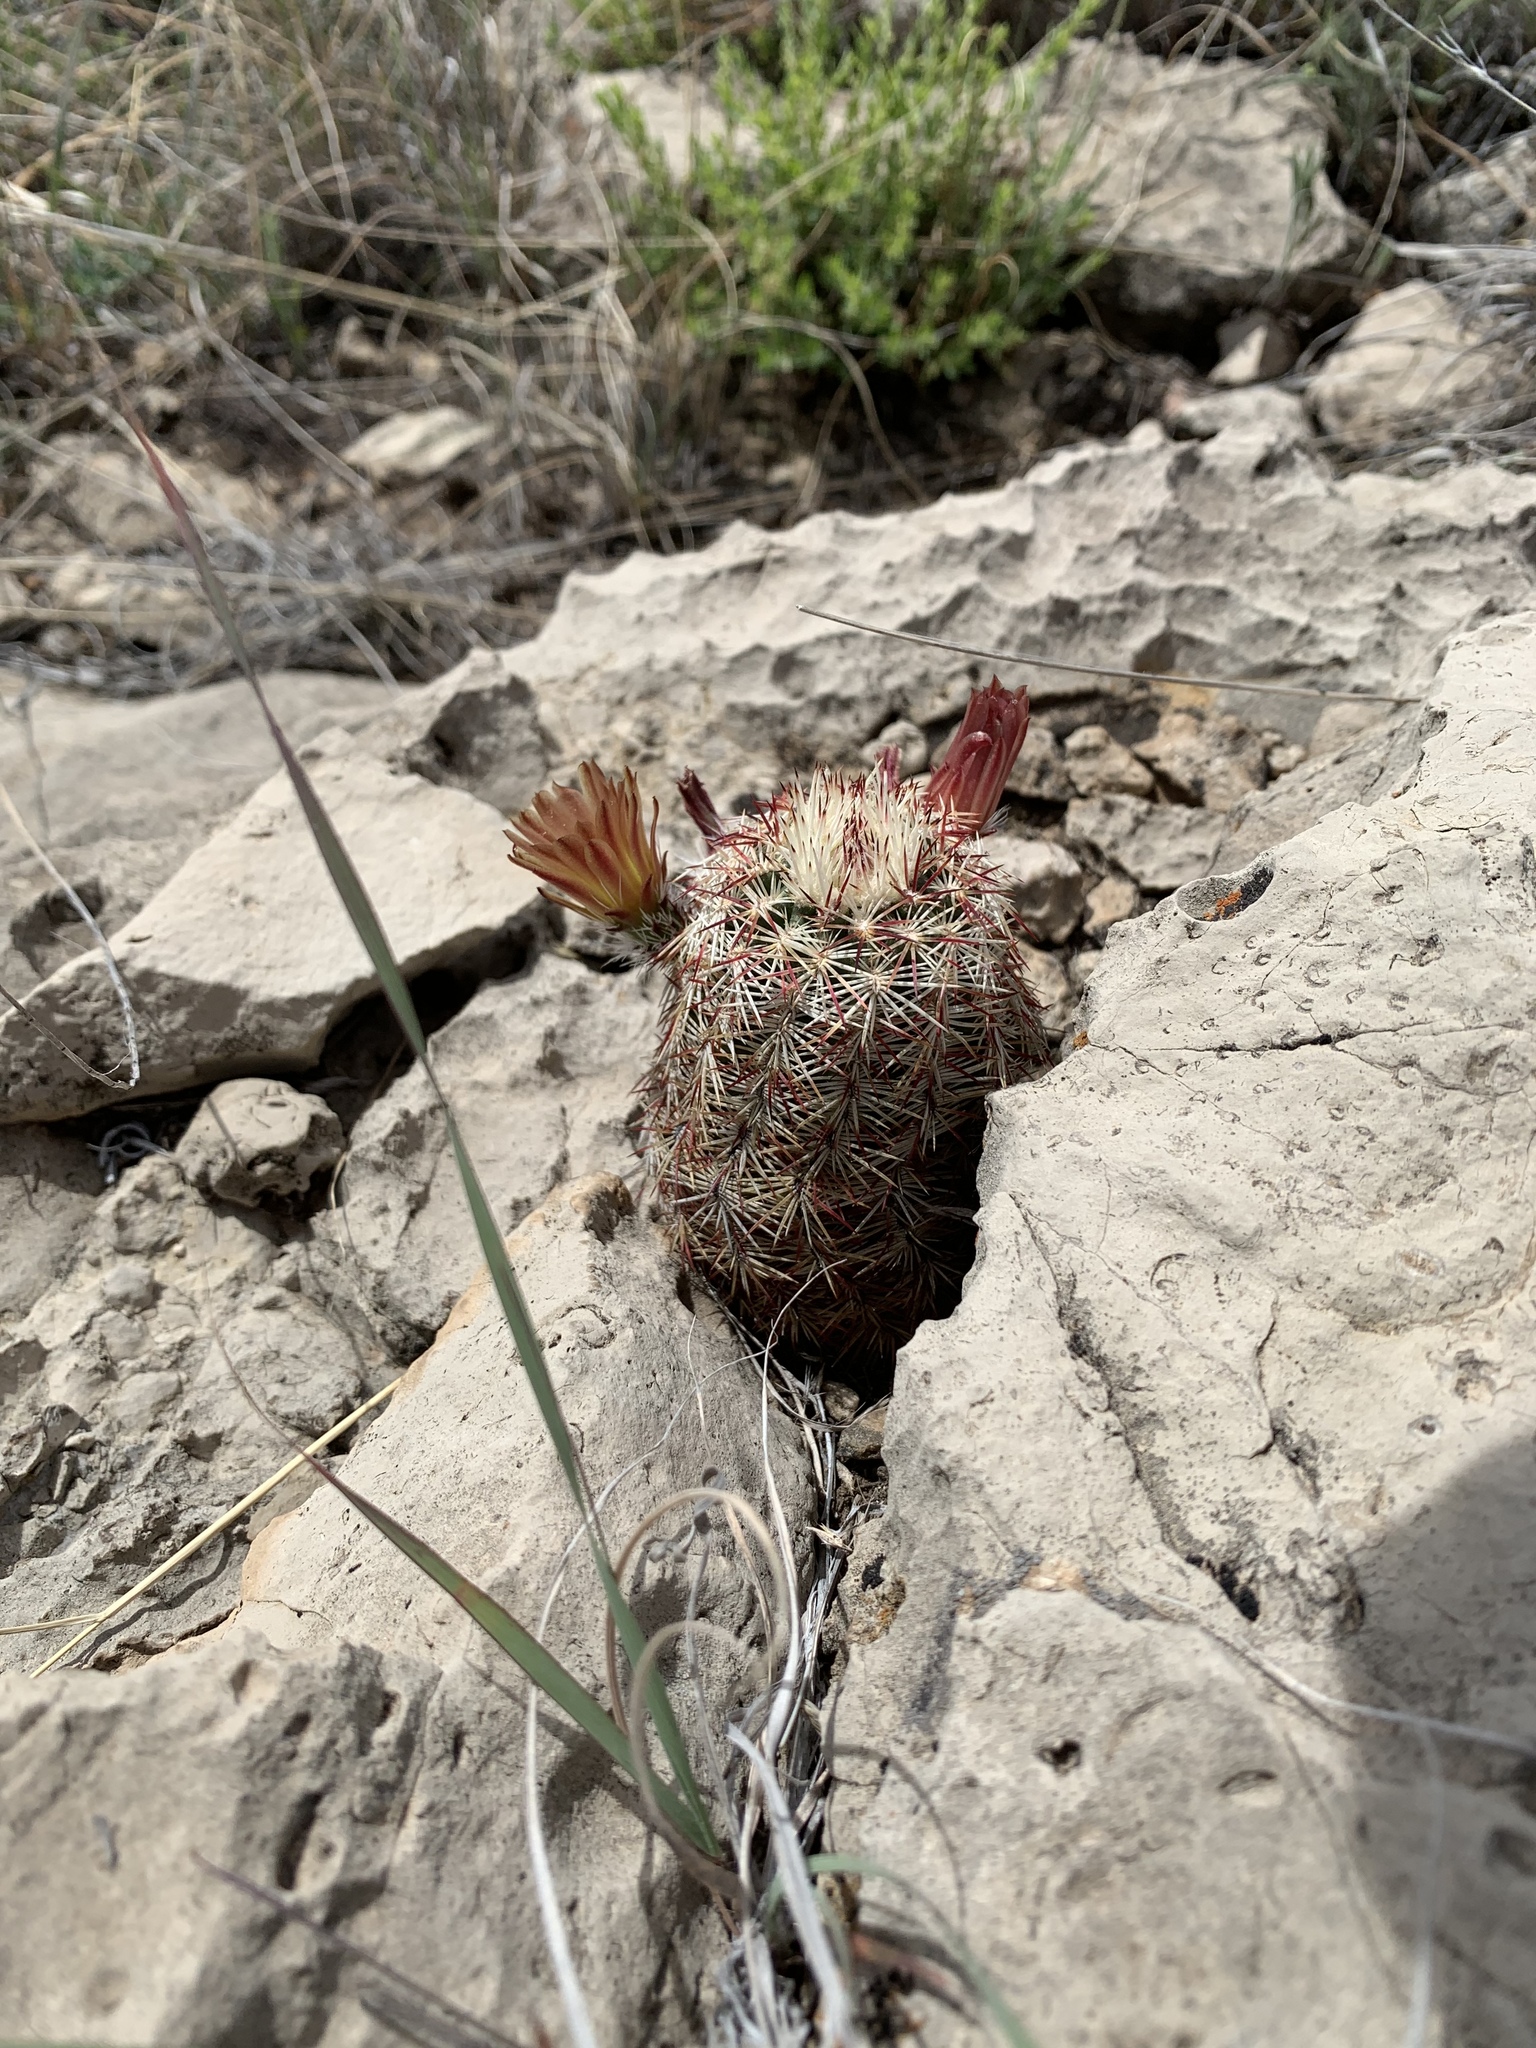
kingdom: Plantae
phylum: Tracheophyta
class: Magnoliopsida
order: Caryophyllales
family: Cactaceae
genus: Echinocereus
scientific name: Echinocereus viridiflorus
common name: Nylon hedgehog cactus
